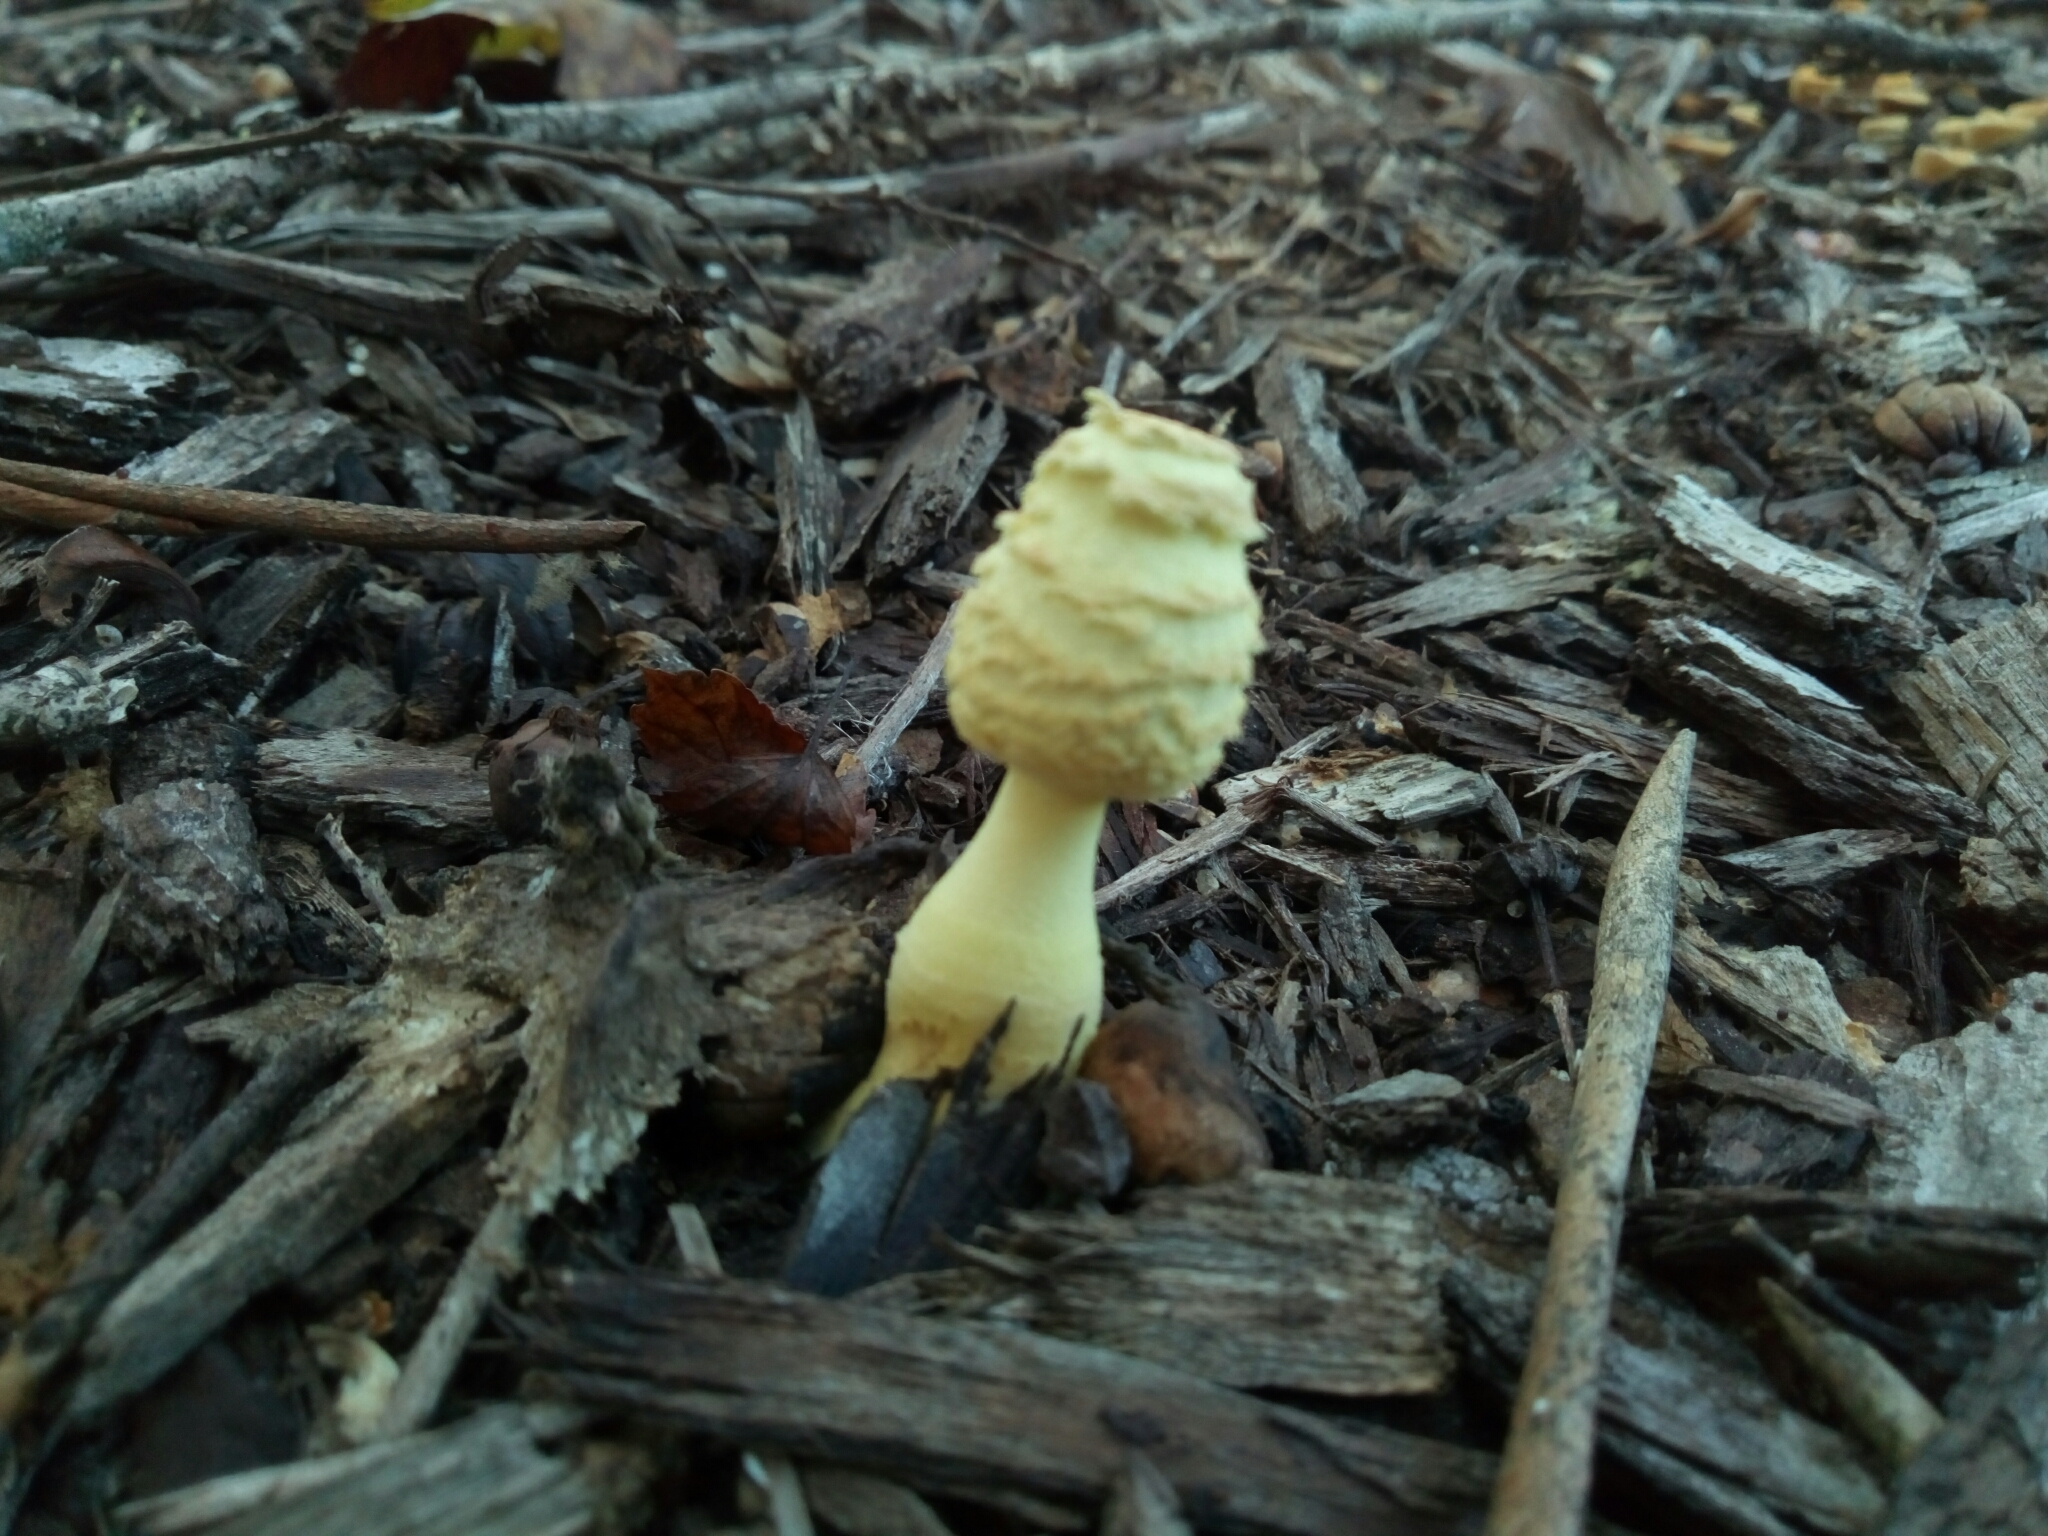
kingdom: Fungi
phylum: Basidiomycota
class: Agaricomycetes
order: Agaricales
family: Agaricaceae
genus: Leucocoprinus
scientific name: Leucocoprinus birnbaumii
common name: Plantpot dapperling
